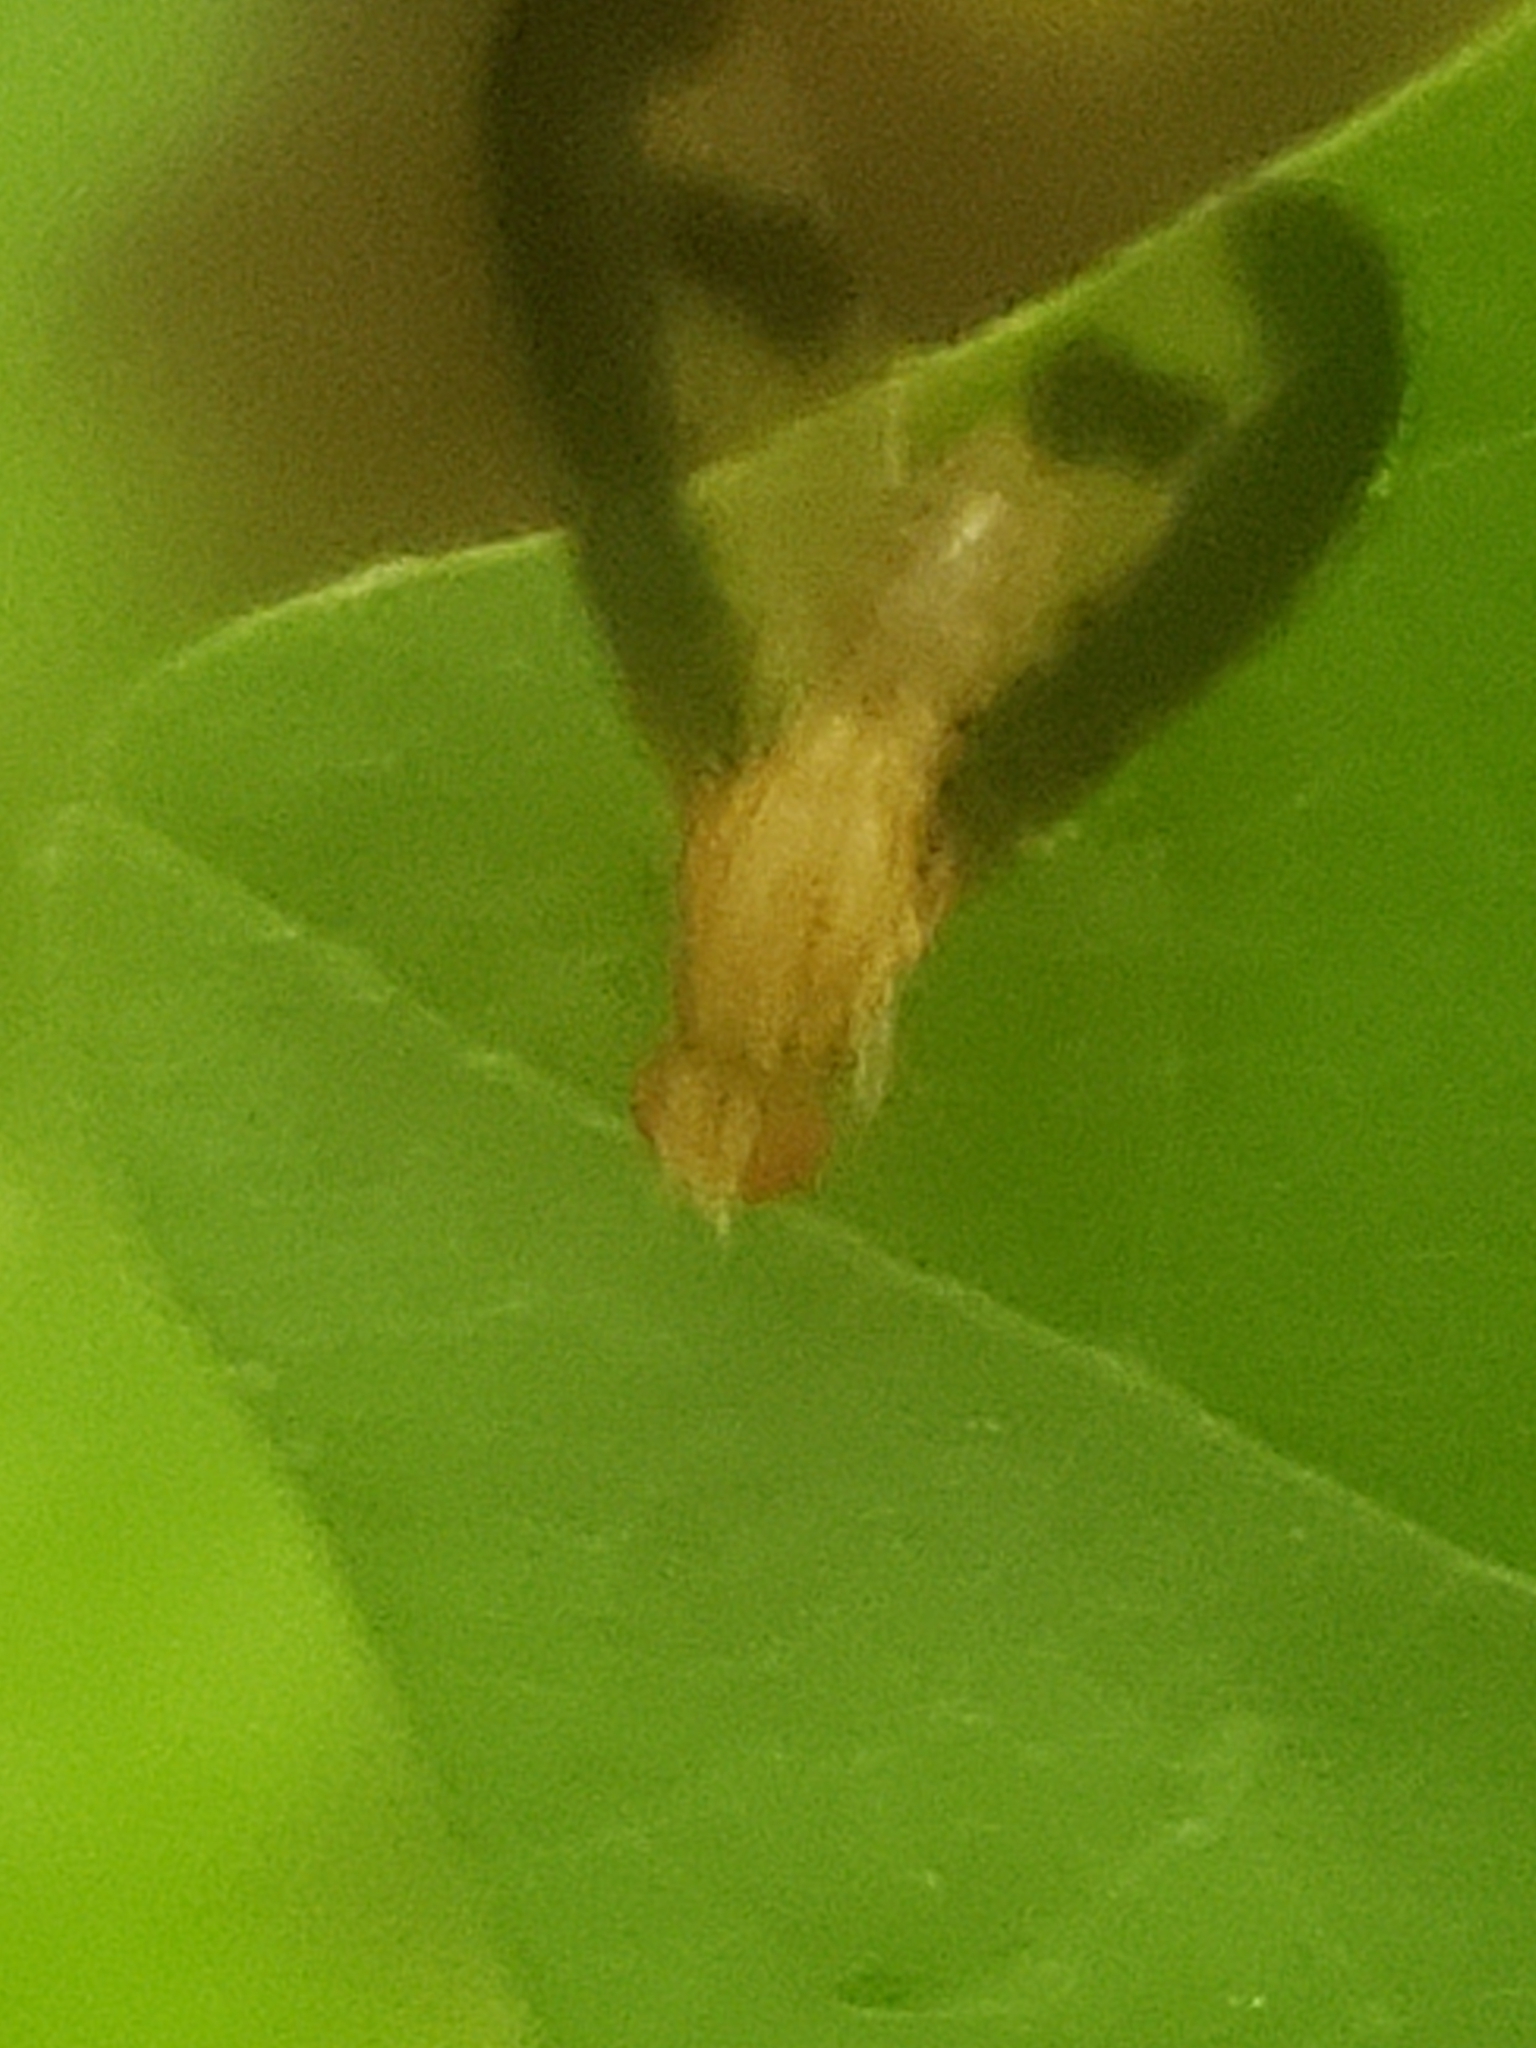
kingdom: Animalia
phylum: Arthropoda
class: Insecta
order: Diptera
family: Pallopteridae
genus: Toxonevra
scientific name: Toxonevra superba
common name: Antlered flutter fly
